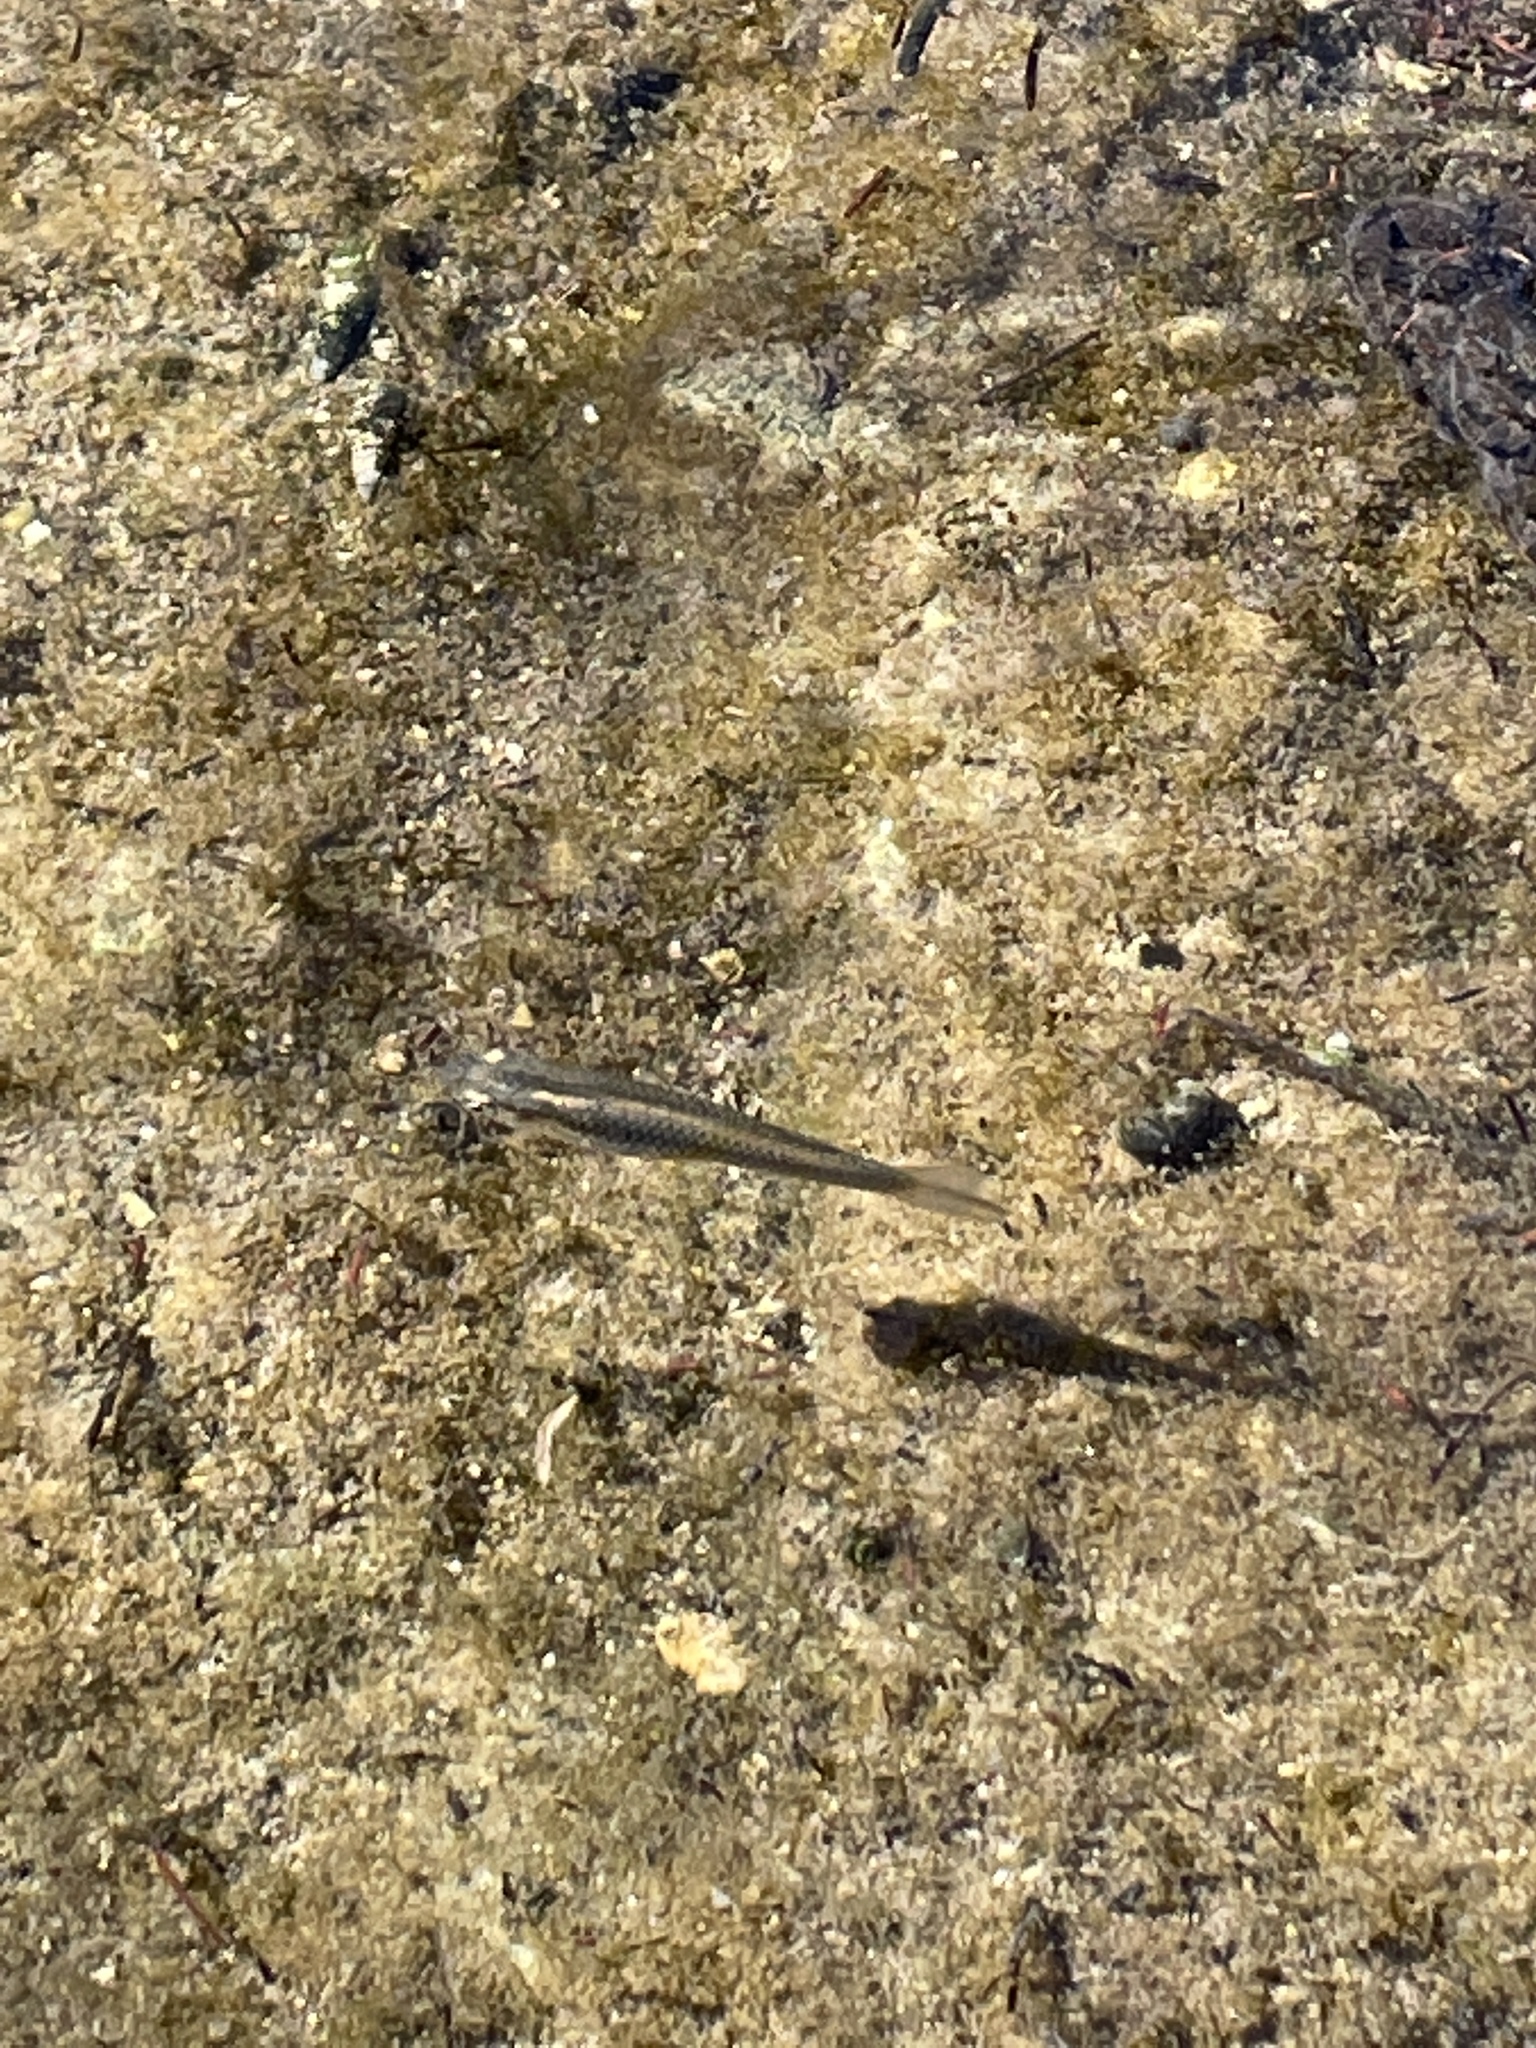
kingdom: Animalia
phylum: Chordata
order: Cyprinodontiformes
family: Poeciliidae
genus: Gambusia
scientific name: Gambusia affinis
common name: Mosquitofish
